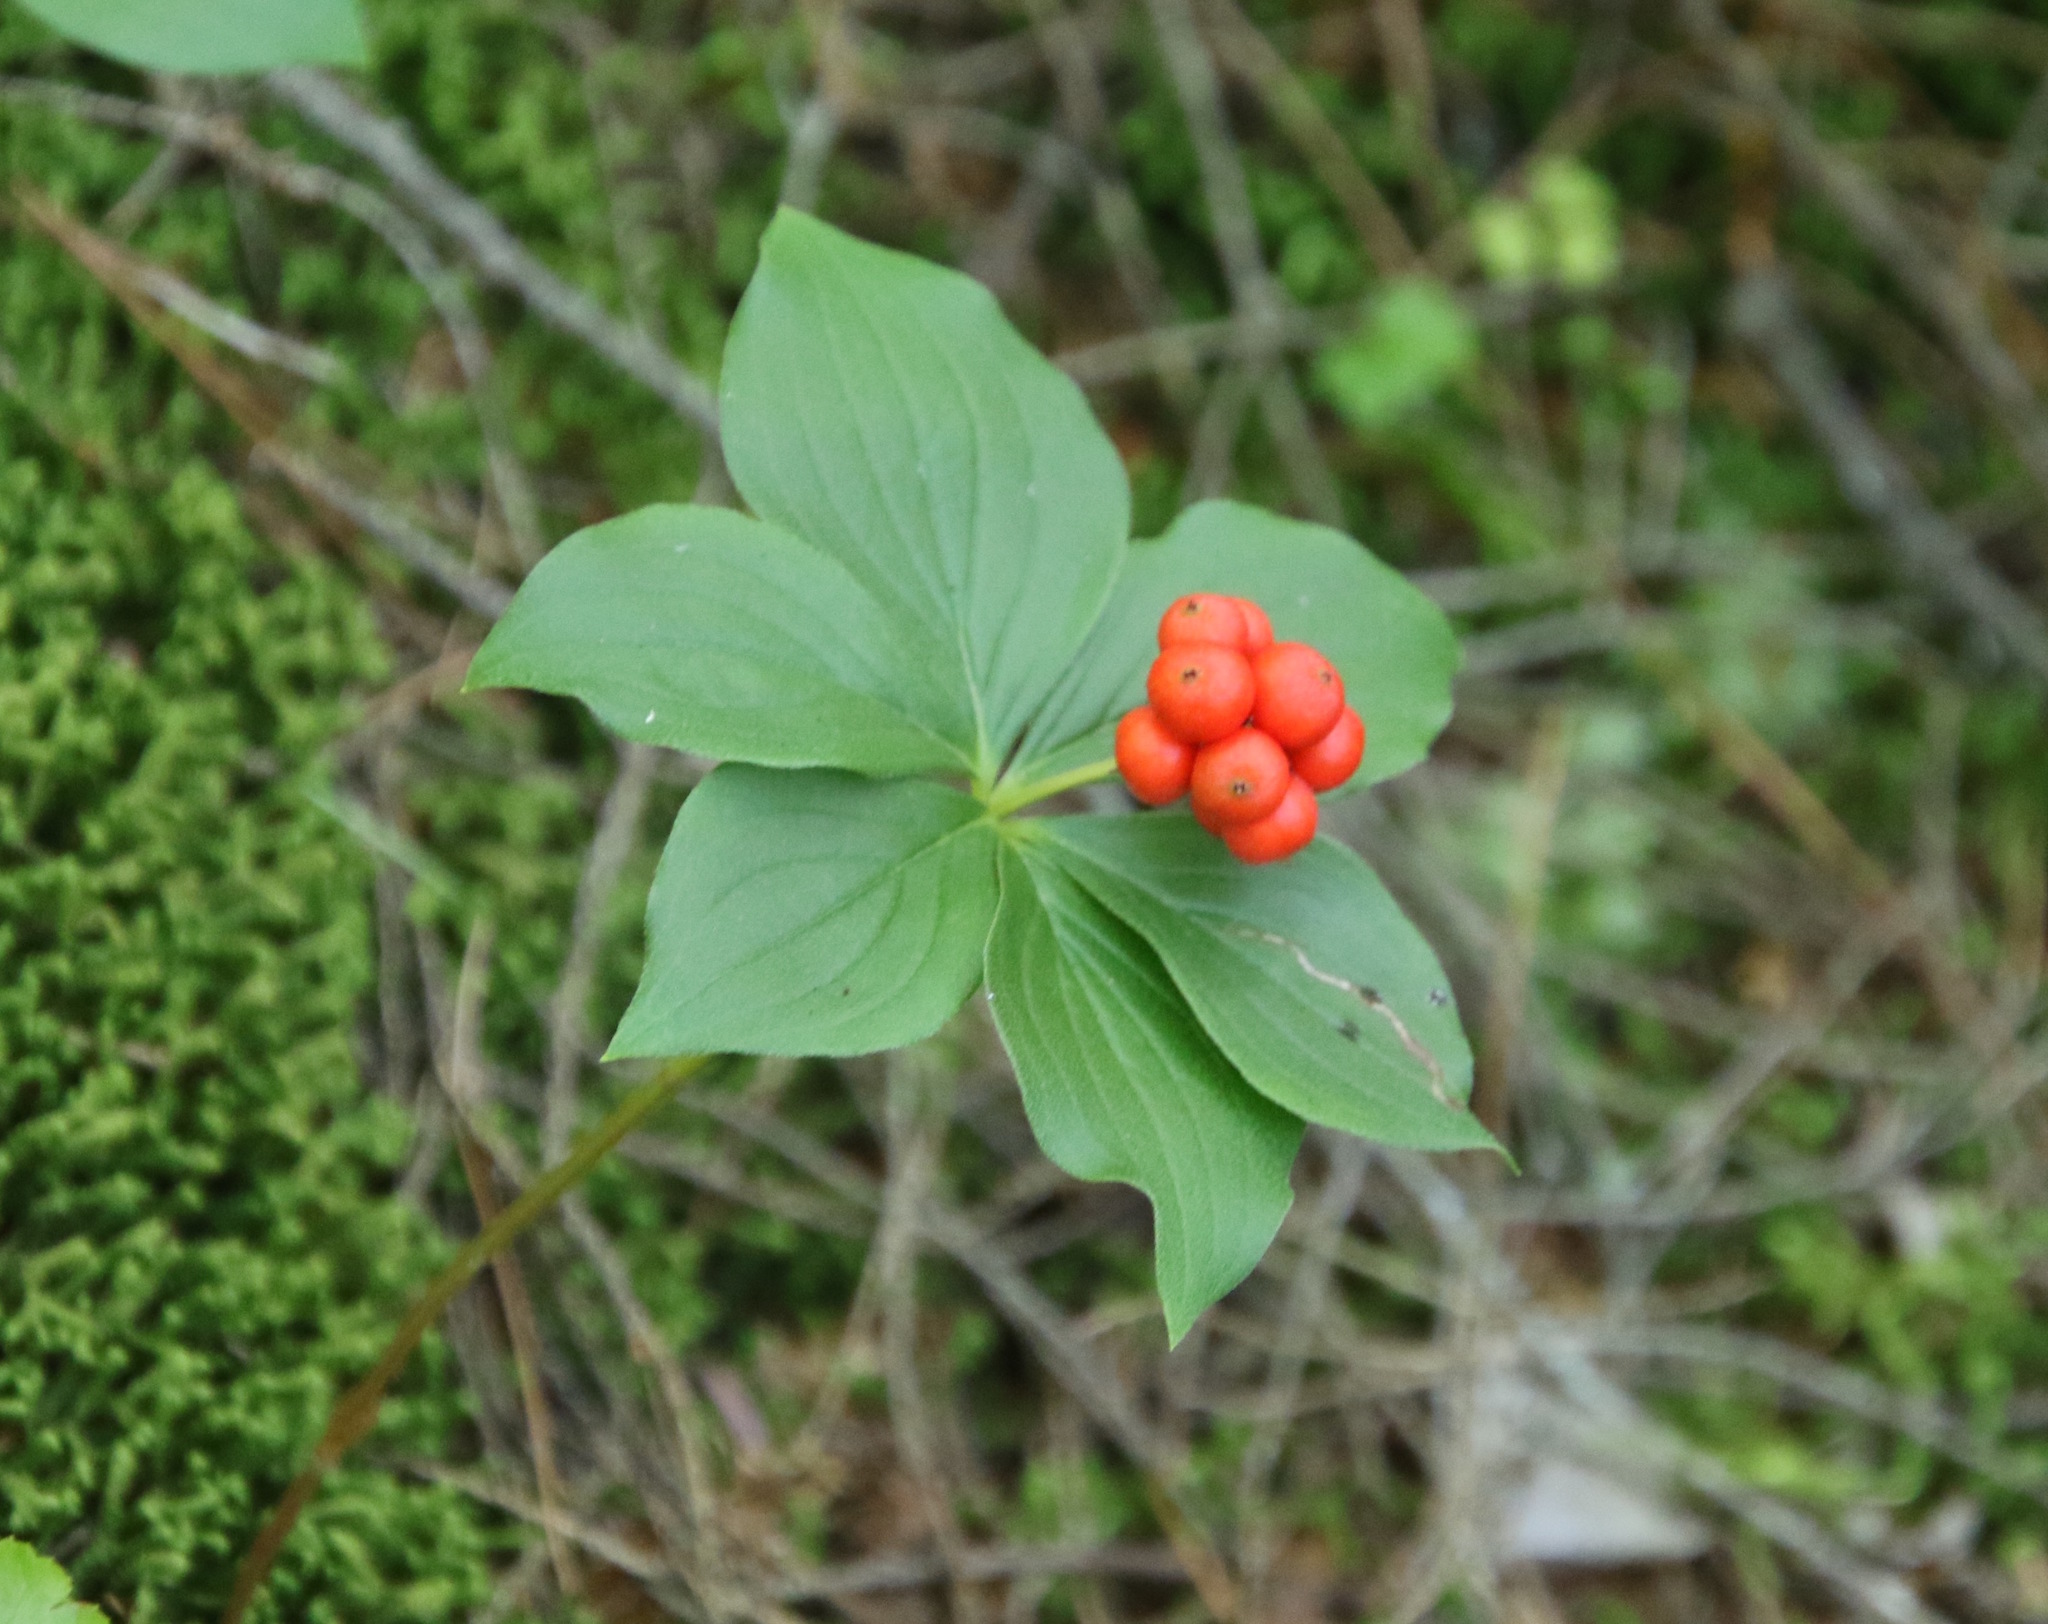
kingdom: Plantae
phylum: Tracheophyta
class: Magnoliopsida
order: Cornales
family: Cornaceae
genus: Cornus
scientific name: Cornus canadensis
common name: Creeping dogwood
